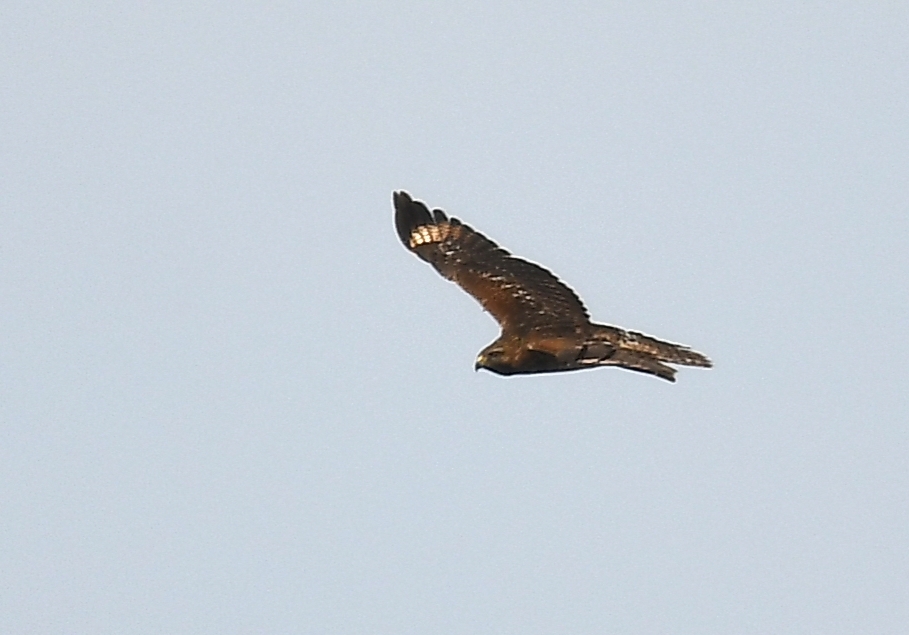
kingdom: Animalia
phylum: Chordata
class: Aves
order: Accipitriformes
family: Accipitridae
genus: Buteo
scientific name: Buteo lineatus
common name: Red-shouldered hawk
